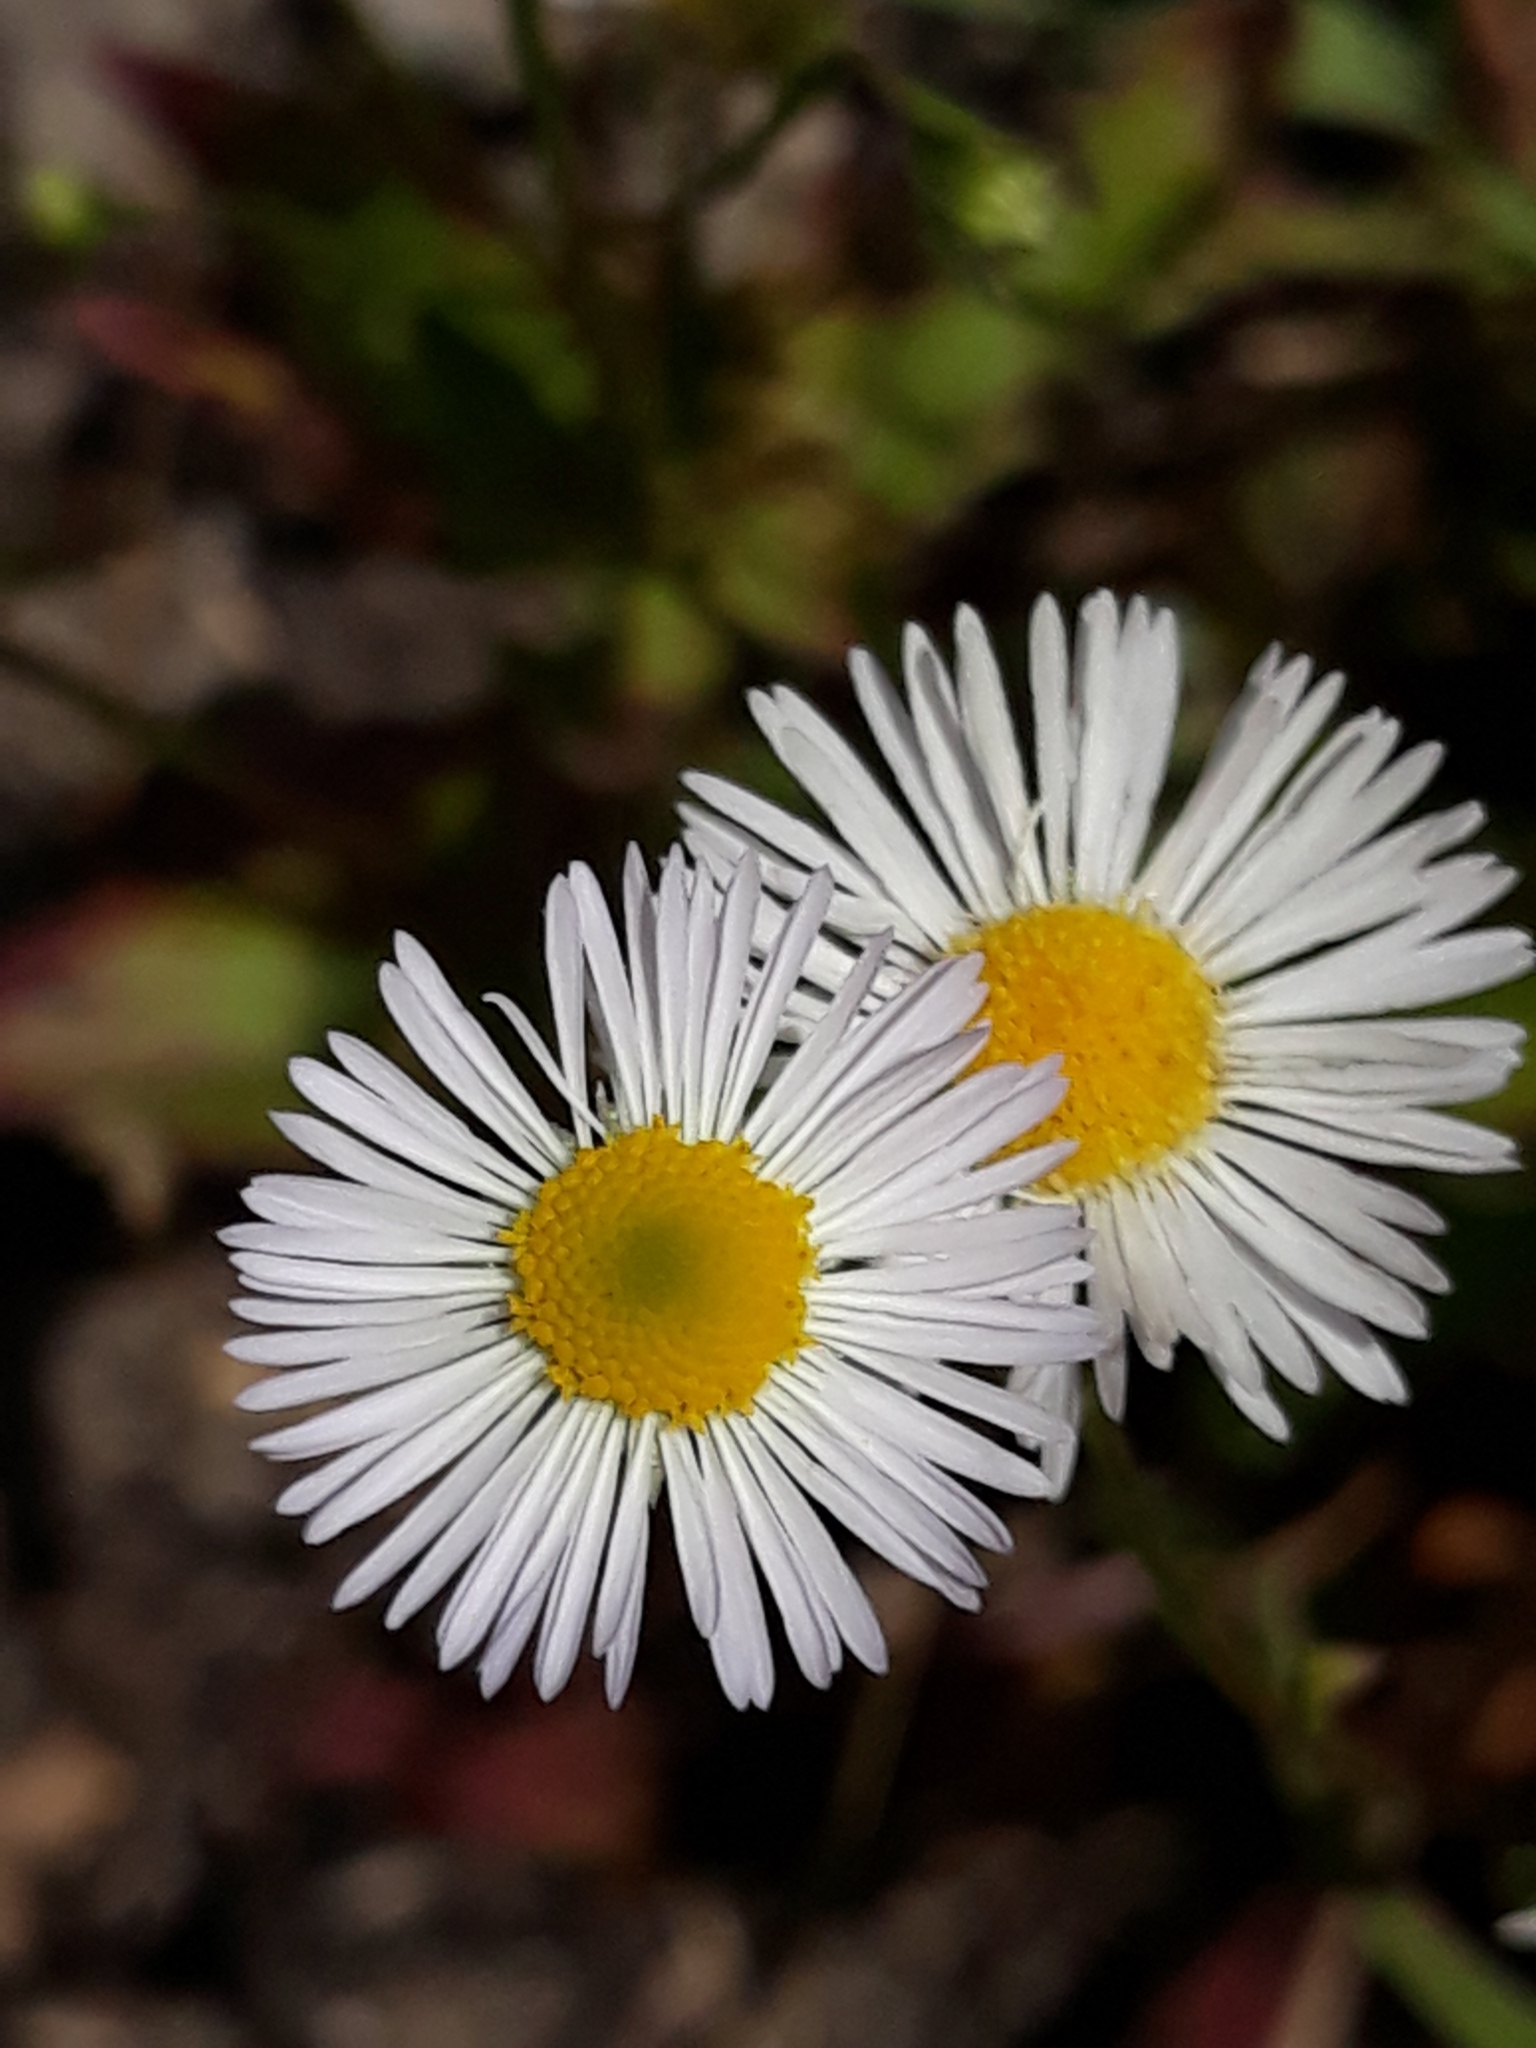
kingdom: Plantae
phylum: Tracheophyta
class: Magnoliopsida
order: Asterales
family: Asteraceae
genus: Erigeron
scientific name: Erigeron annuus
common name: Tall fleabane
